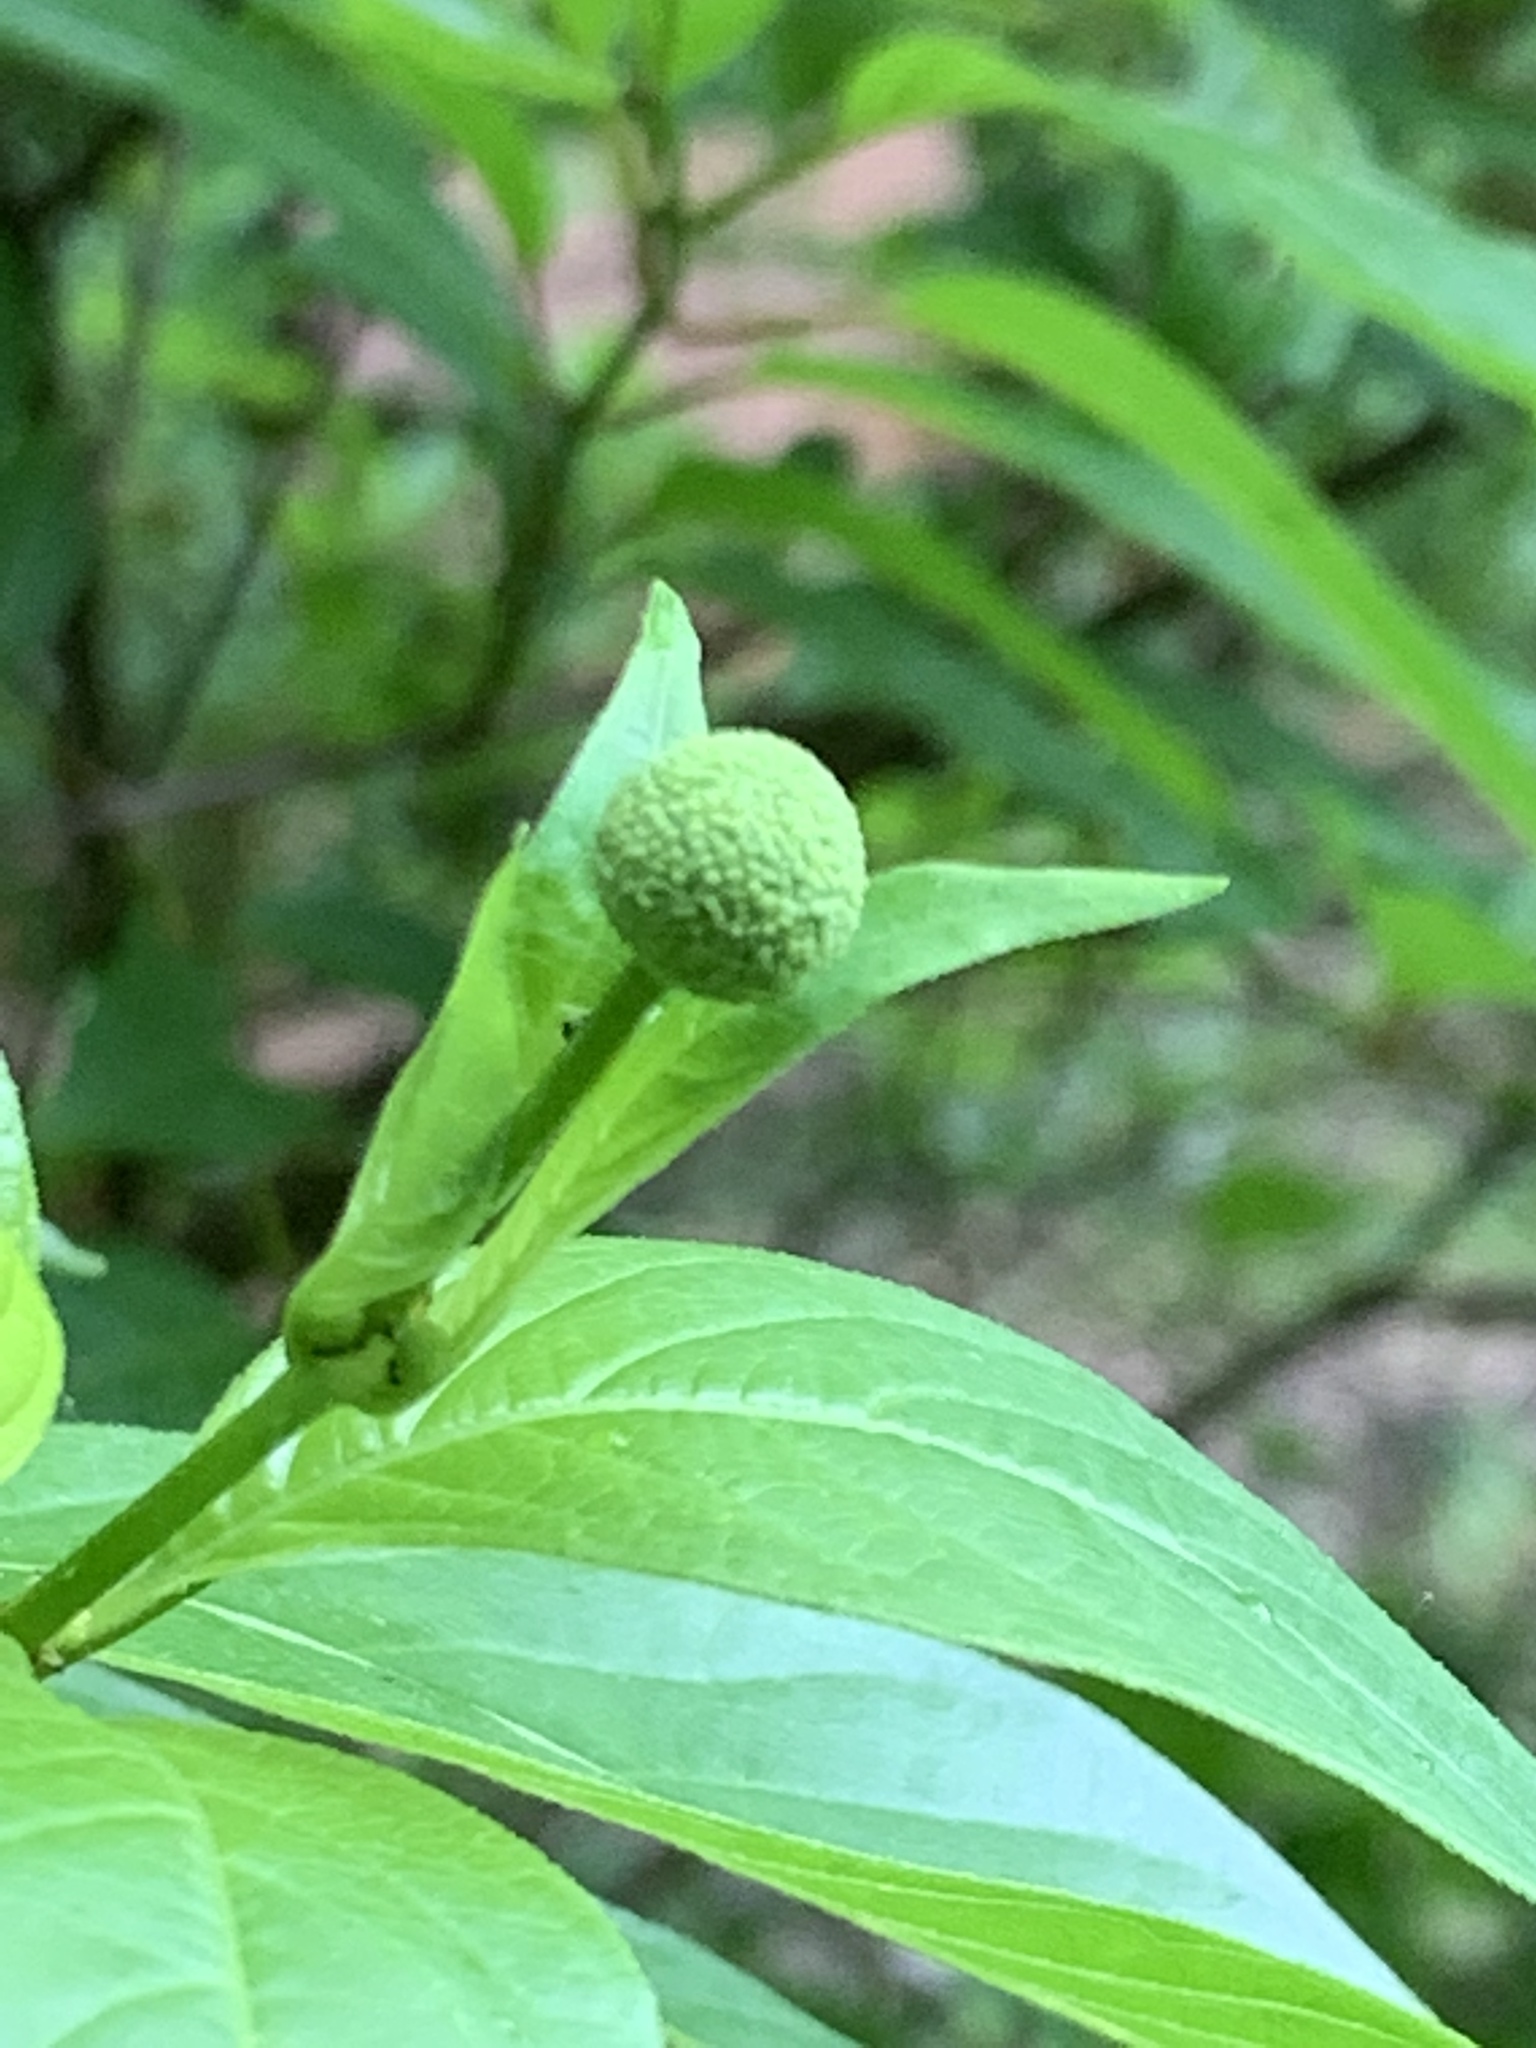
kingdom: Plantae
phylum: Tracheophyta
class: Magnoliopsida
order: Gentianales
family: Rubiaceae
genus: Cephalanthus
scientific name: Cephalanthus occidentalis
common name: Button-willow
